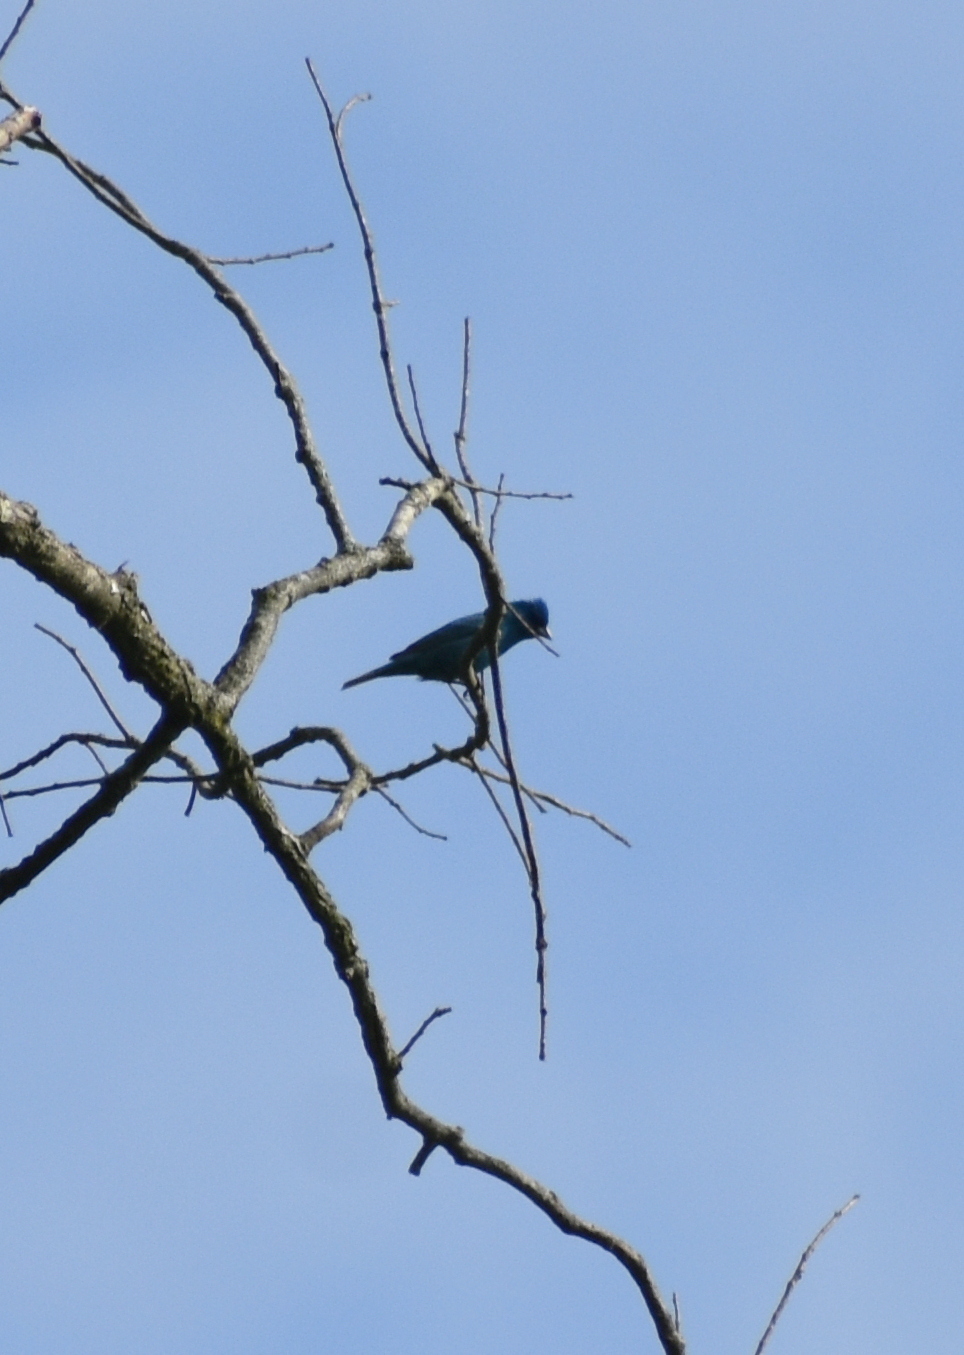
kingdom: Animalia
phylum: Chordata
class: Aves
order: Passeriformes
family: Cardinalidae
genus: Passerina
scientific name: Passerina cyanea
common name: Indigo bunting
